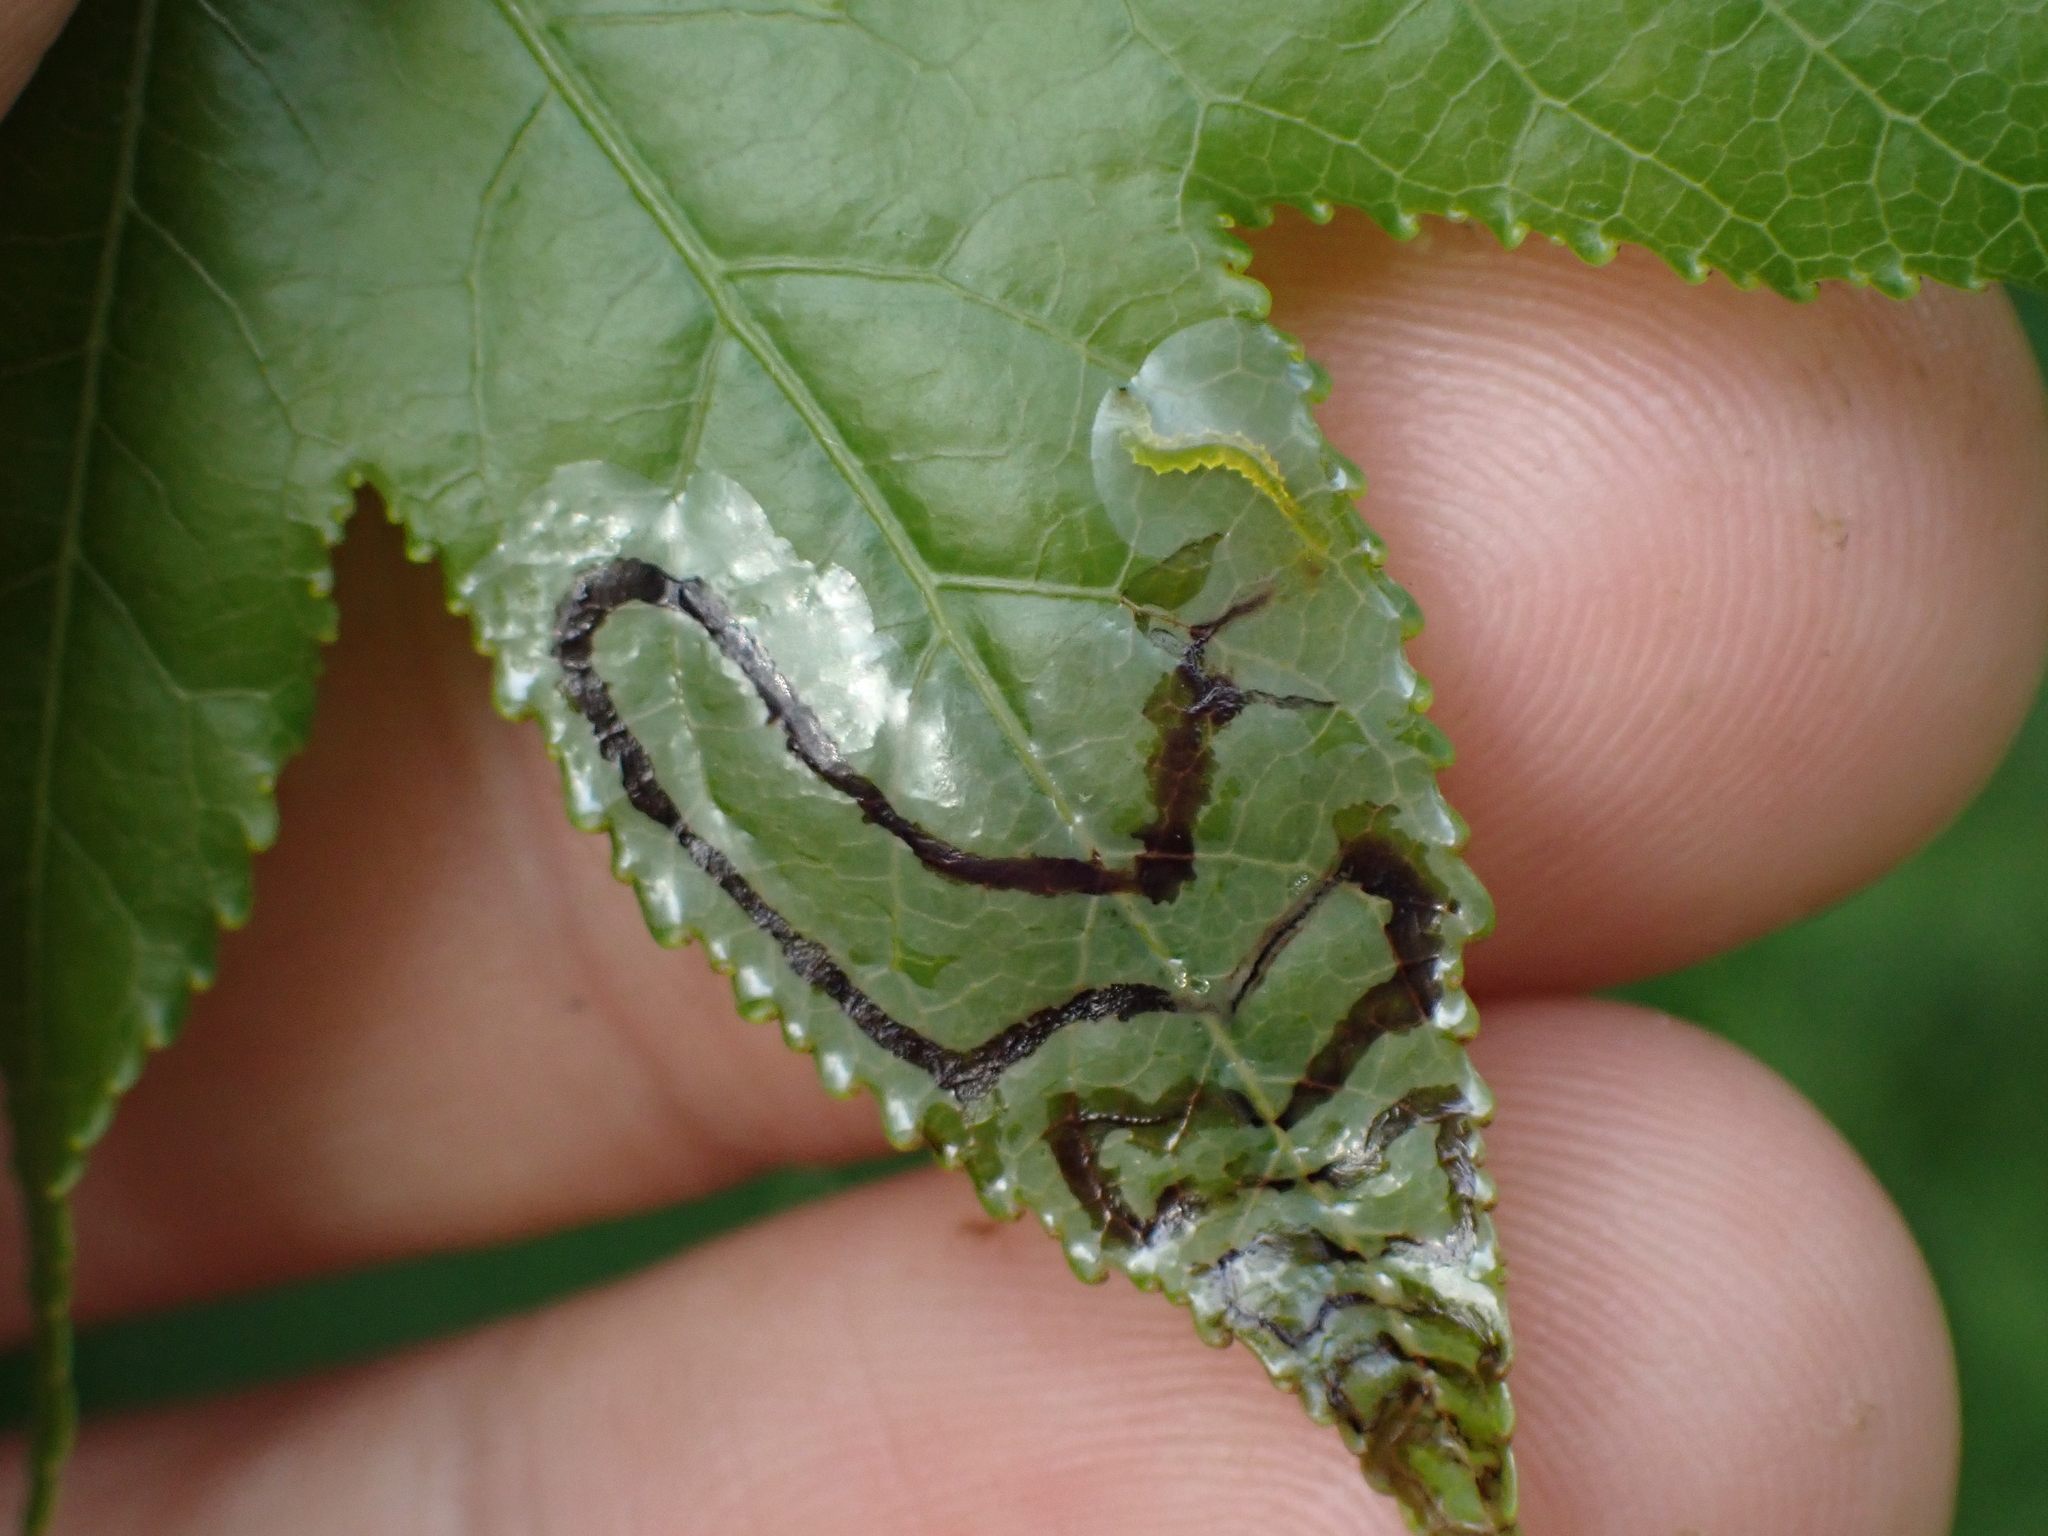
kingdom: Animalia
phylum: Arthropoda
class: Insecta
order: Lepidoptera
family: Gracillariidae
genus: Phyllocnistis
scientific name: Phyllocnistis liquidambarisella
